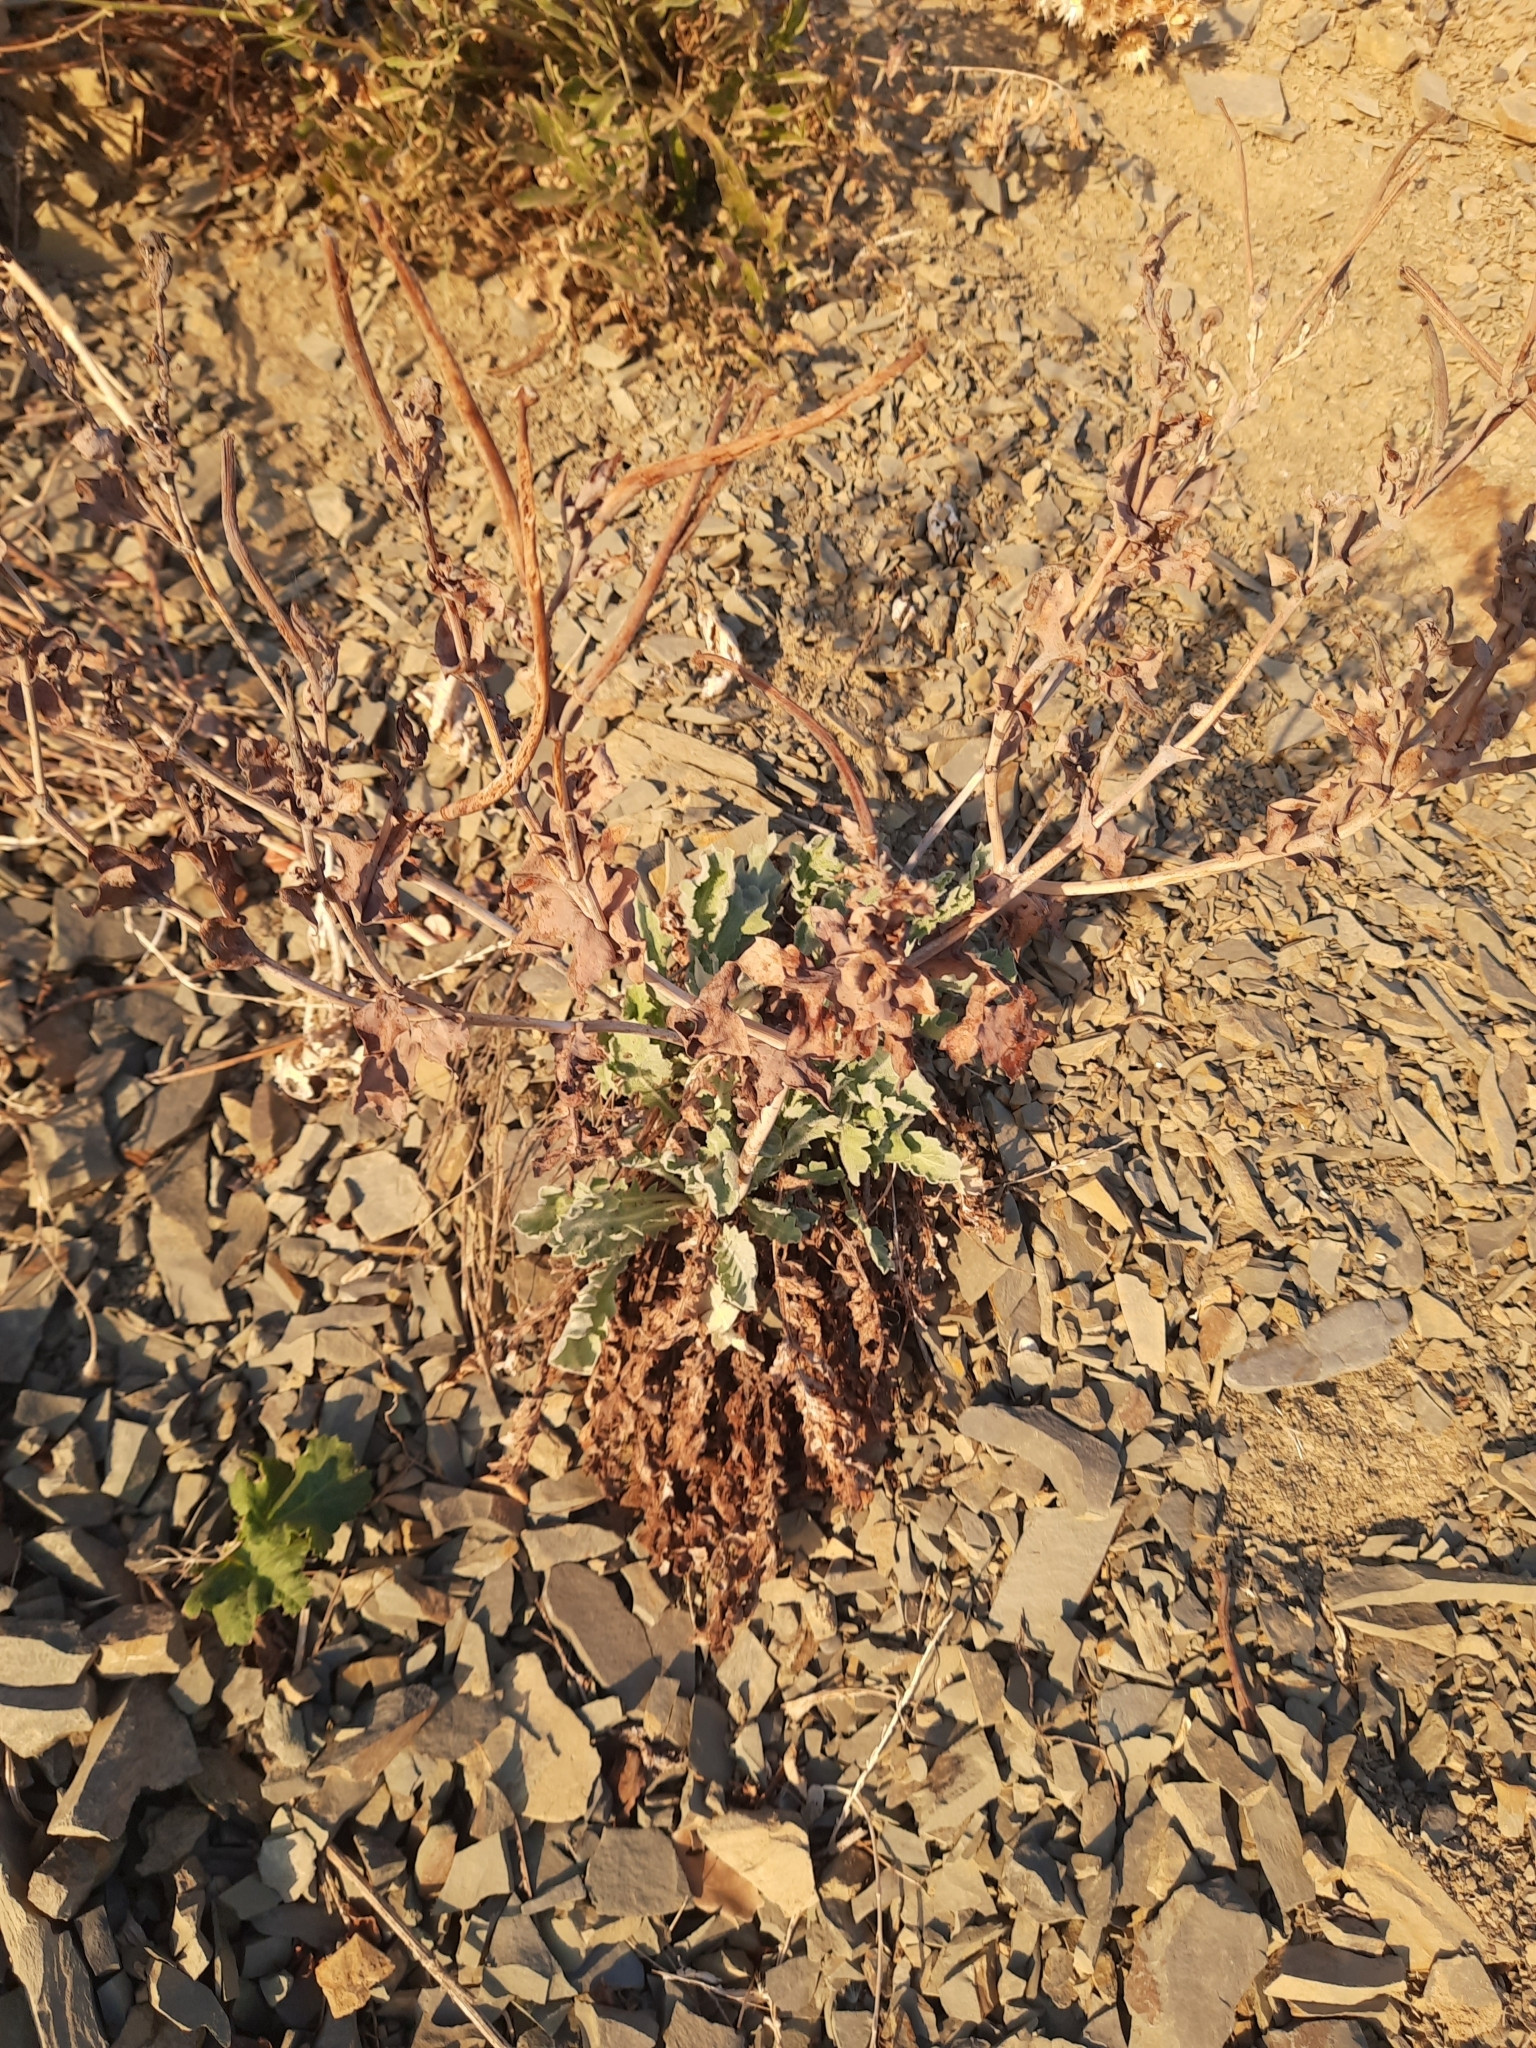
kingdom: Plantae
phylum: Tracheophyta
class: Magnoliopsida
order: Ranunculales
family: Papaveraceae
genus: Glaucium
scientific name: Glaucium flavum
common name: Yellow horned-poppy
